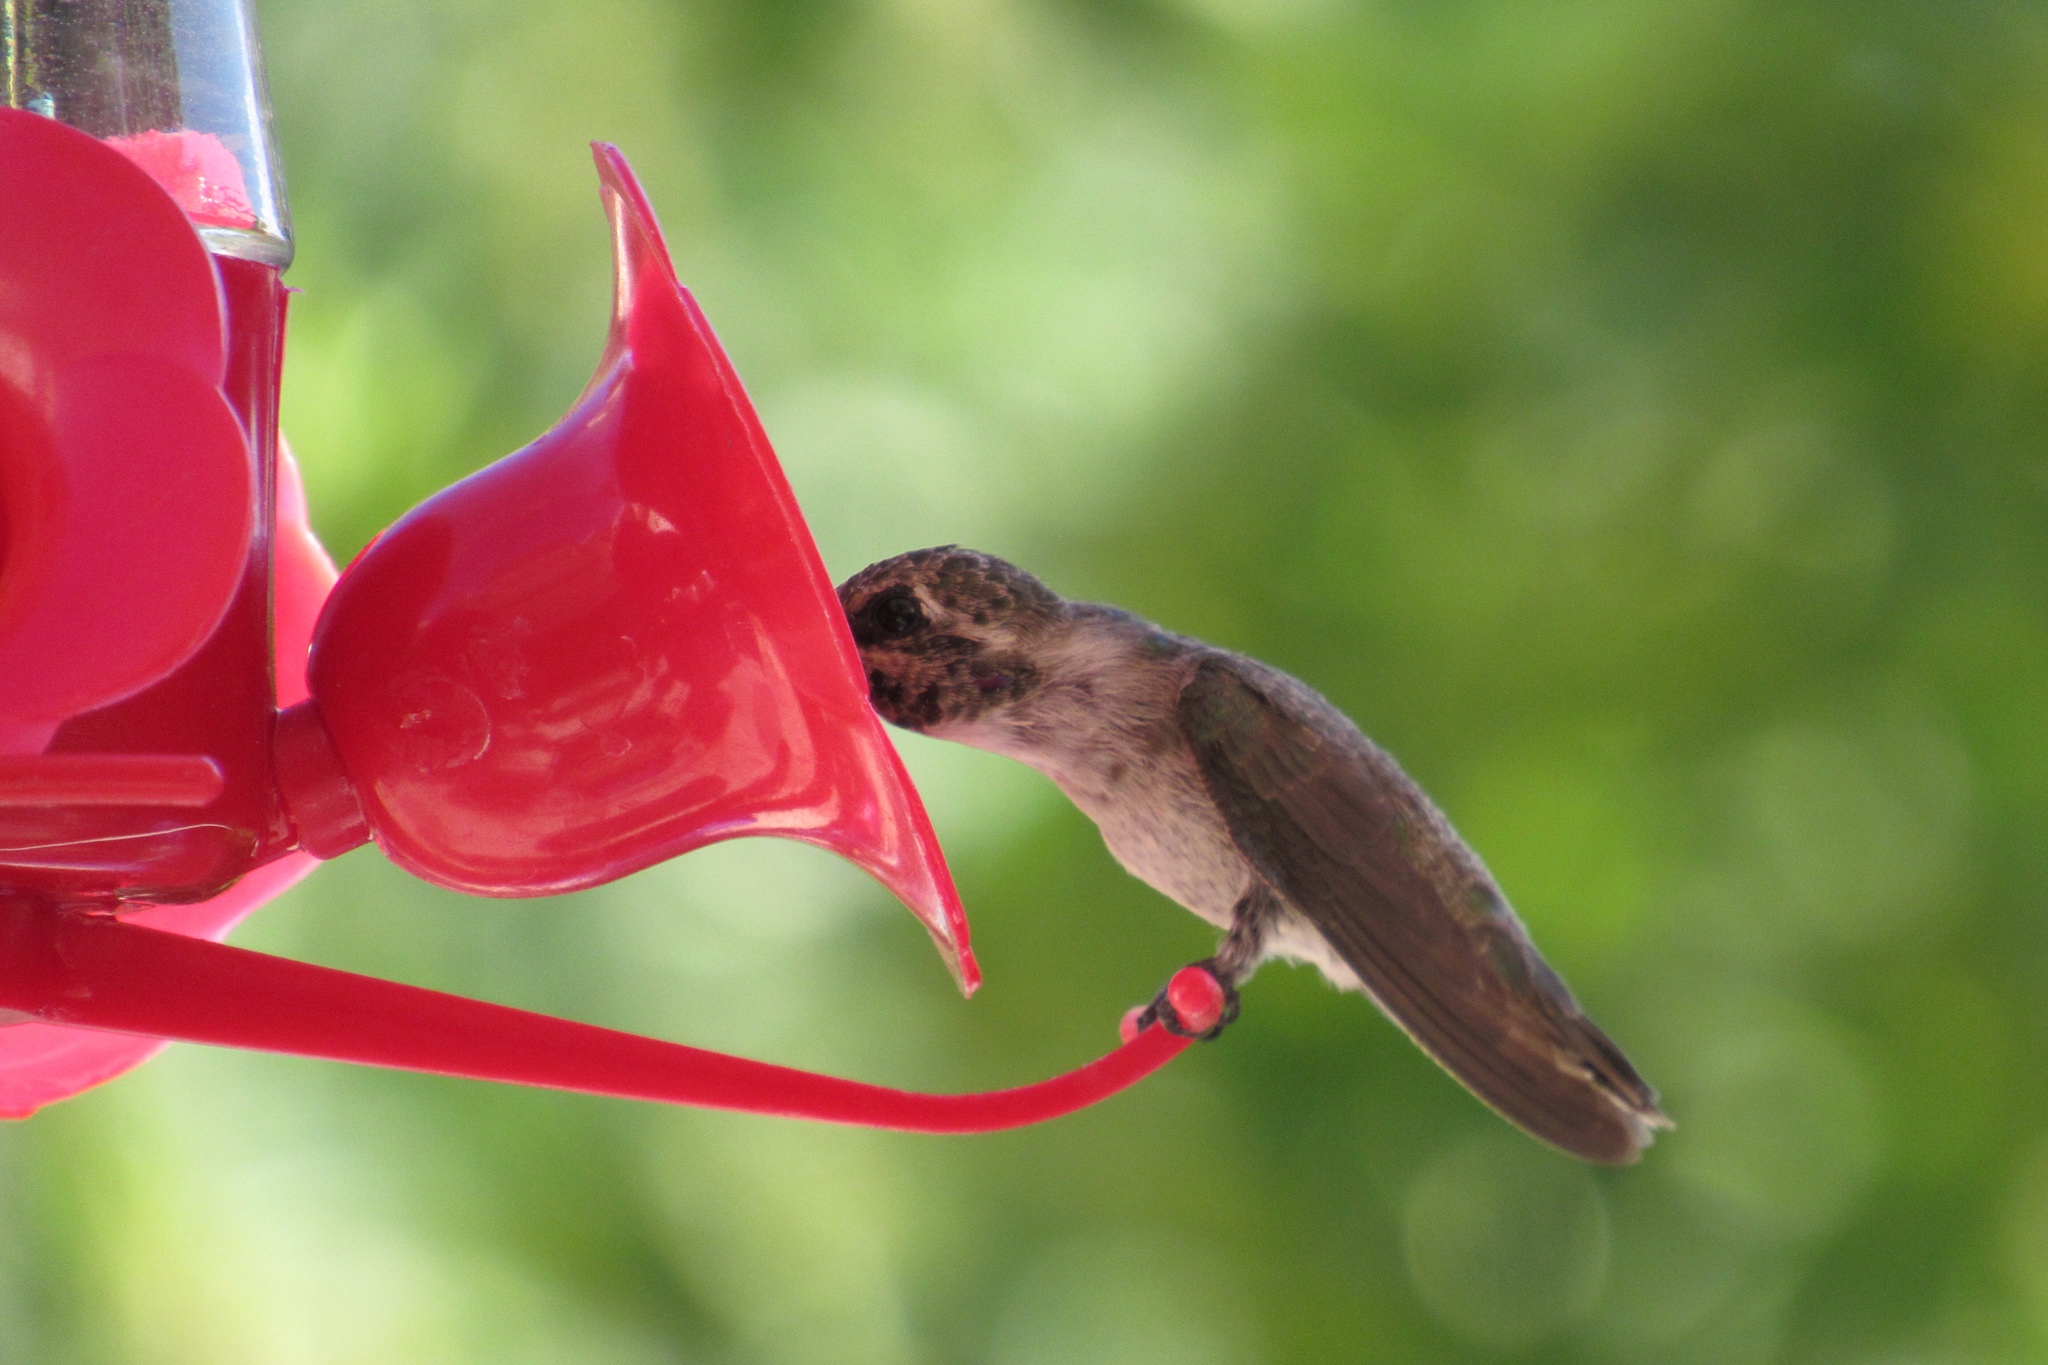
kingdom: Animalia
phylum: Chordata
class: Aves
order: Apodiformes
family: Trochilidae
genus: Calypte
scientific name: Calypte costae
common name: Costa's hummingbird
